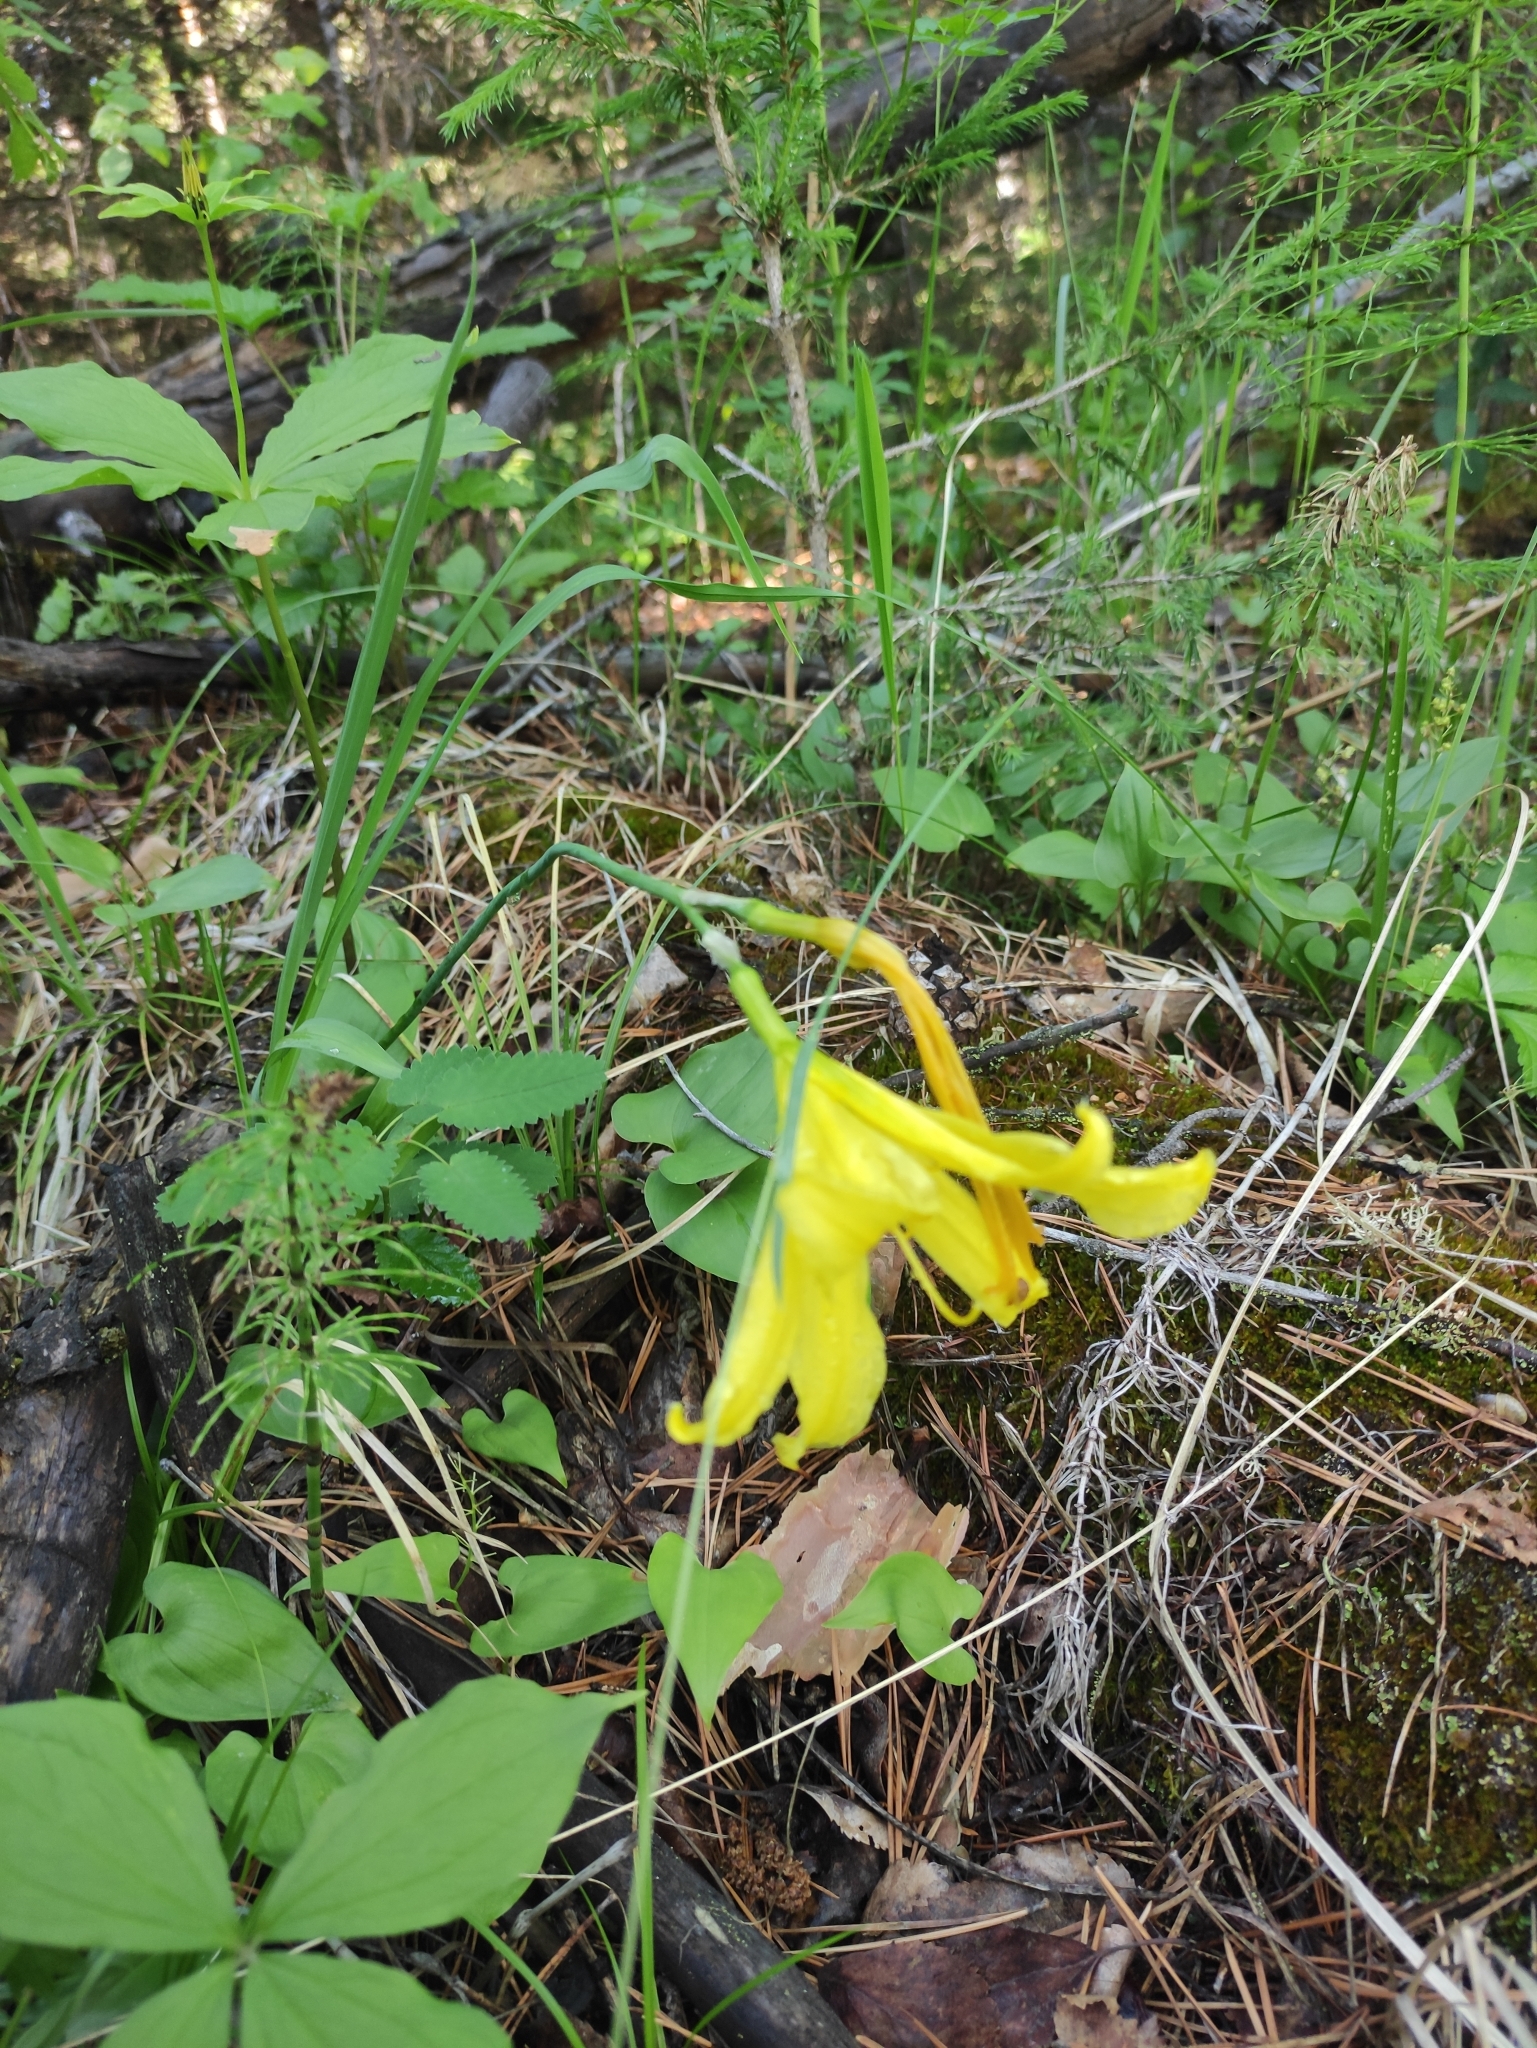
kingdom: Plantae
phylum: Tracheophyta
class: Liliopsida
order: Asparagales
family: Asphodelaceae
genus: Hemerocallis
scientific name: Hemerocallis minor
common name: Small daylily
